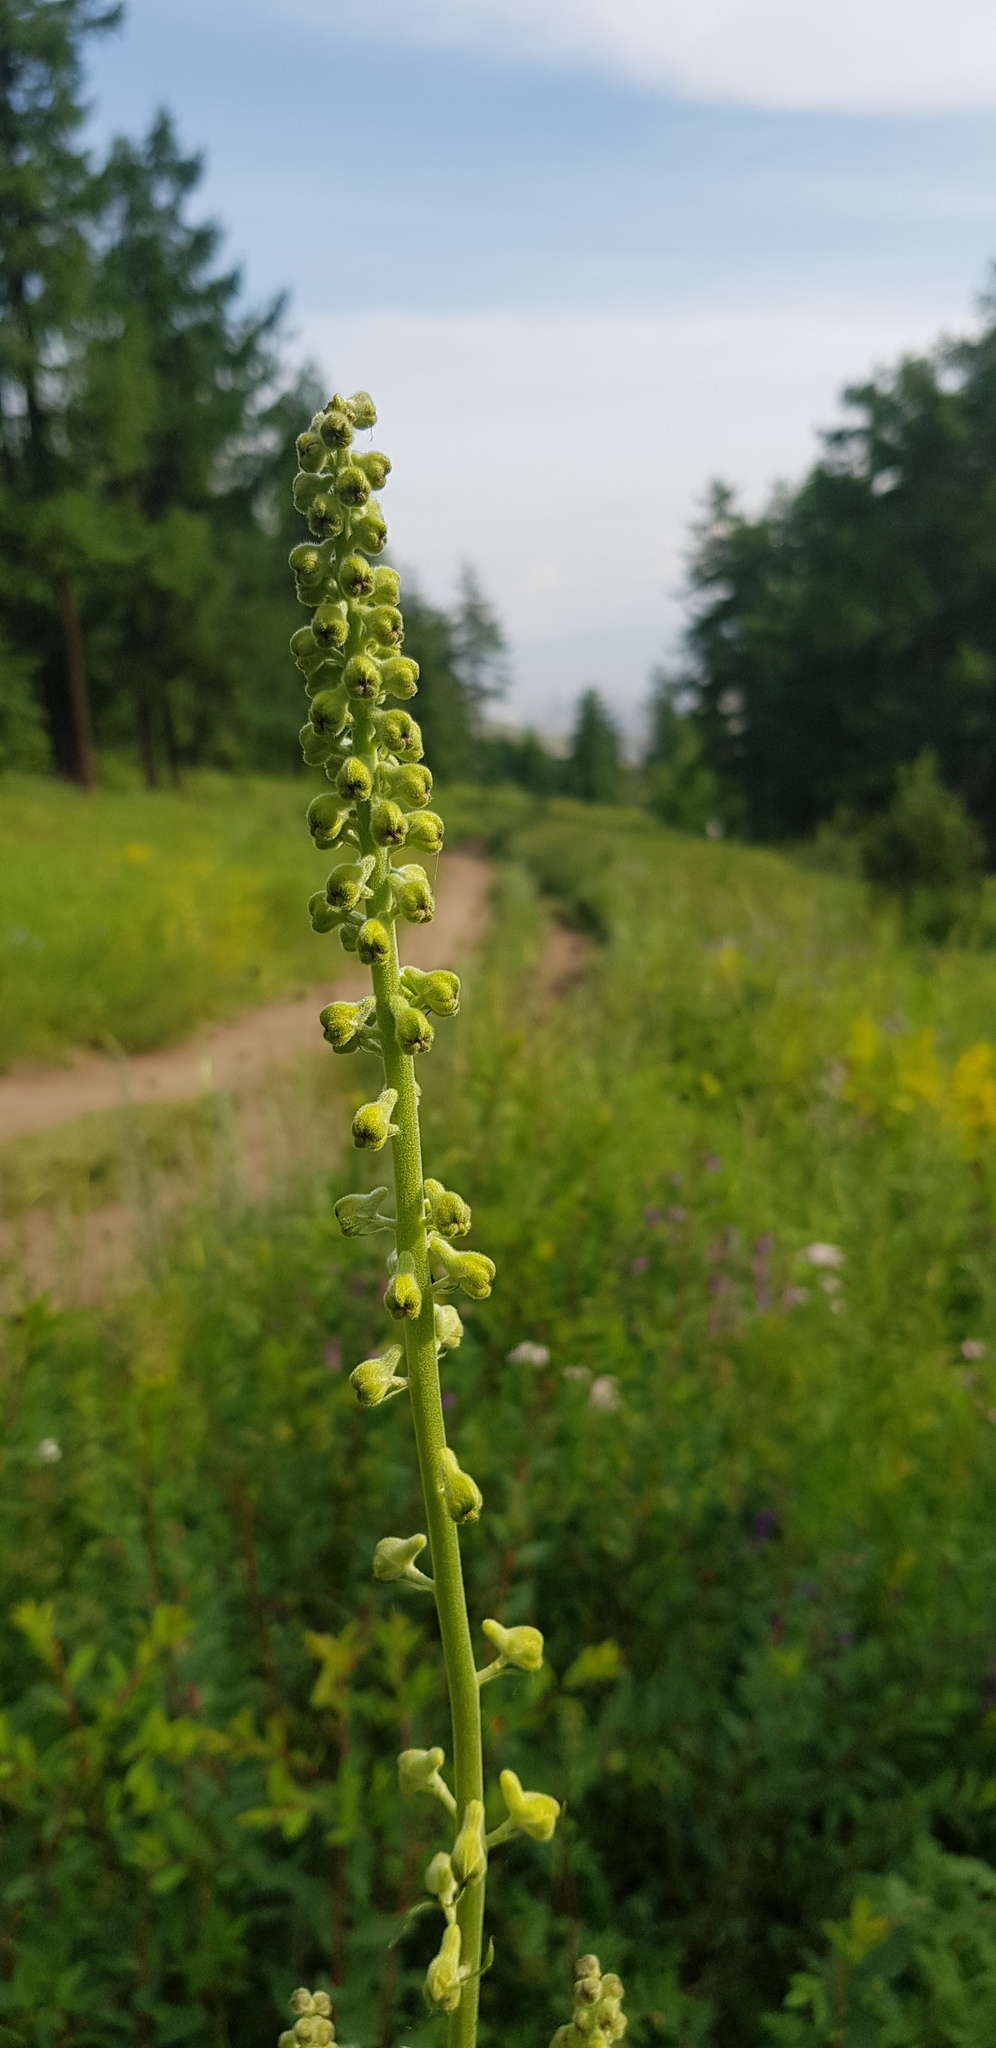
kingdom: Plantae
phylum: Tracheophyta
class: Magnoliopsida
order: Ranunculales
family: Ranunculaceae
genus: Aconitum
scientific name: Aconitum barbatum
